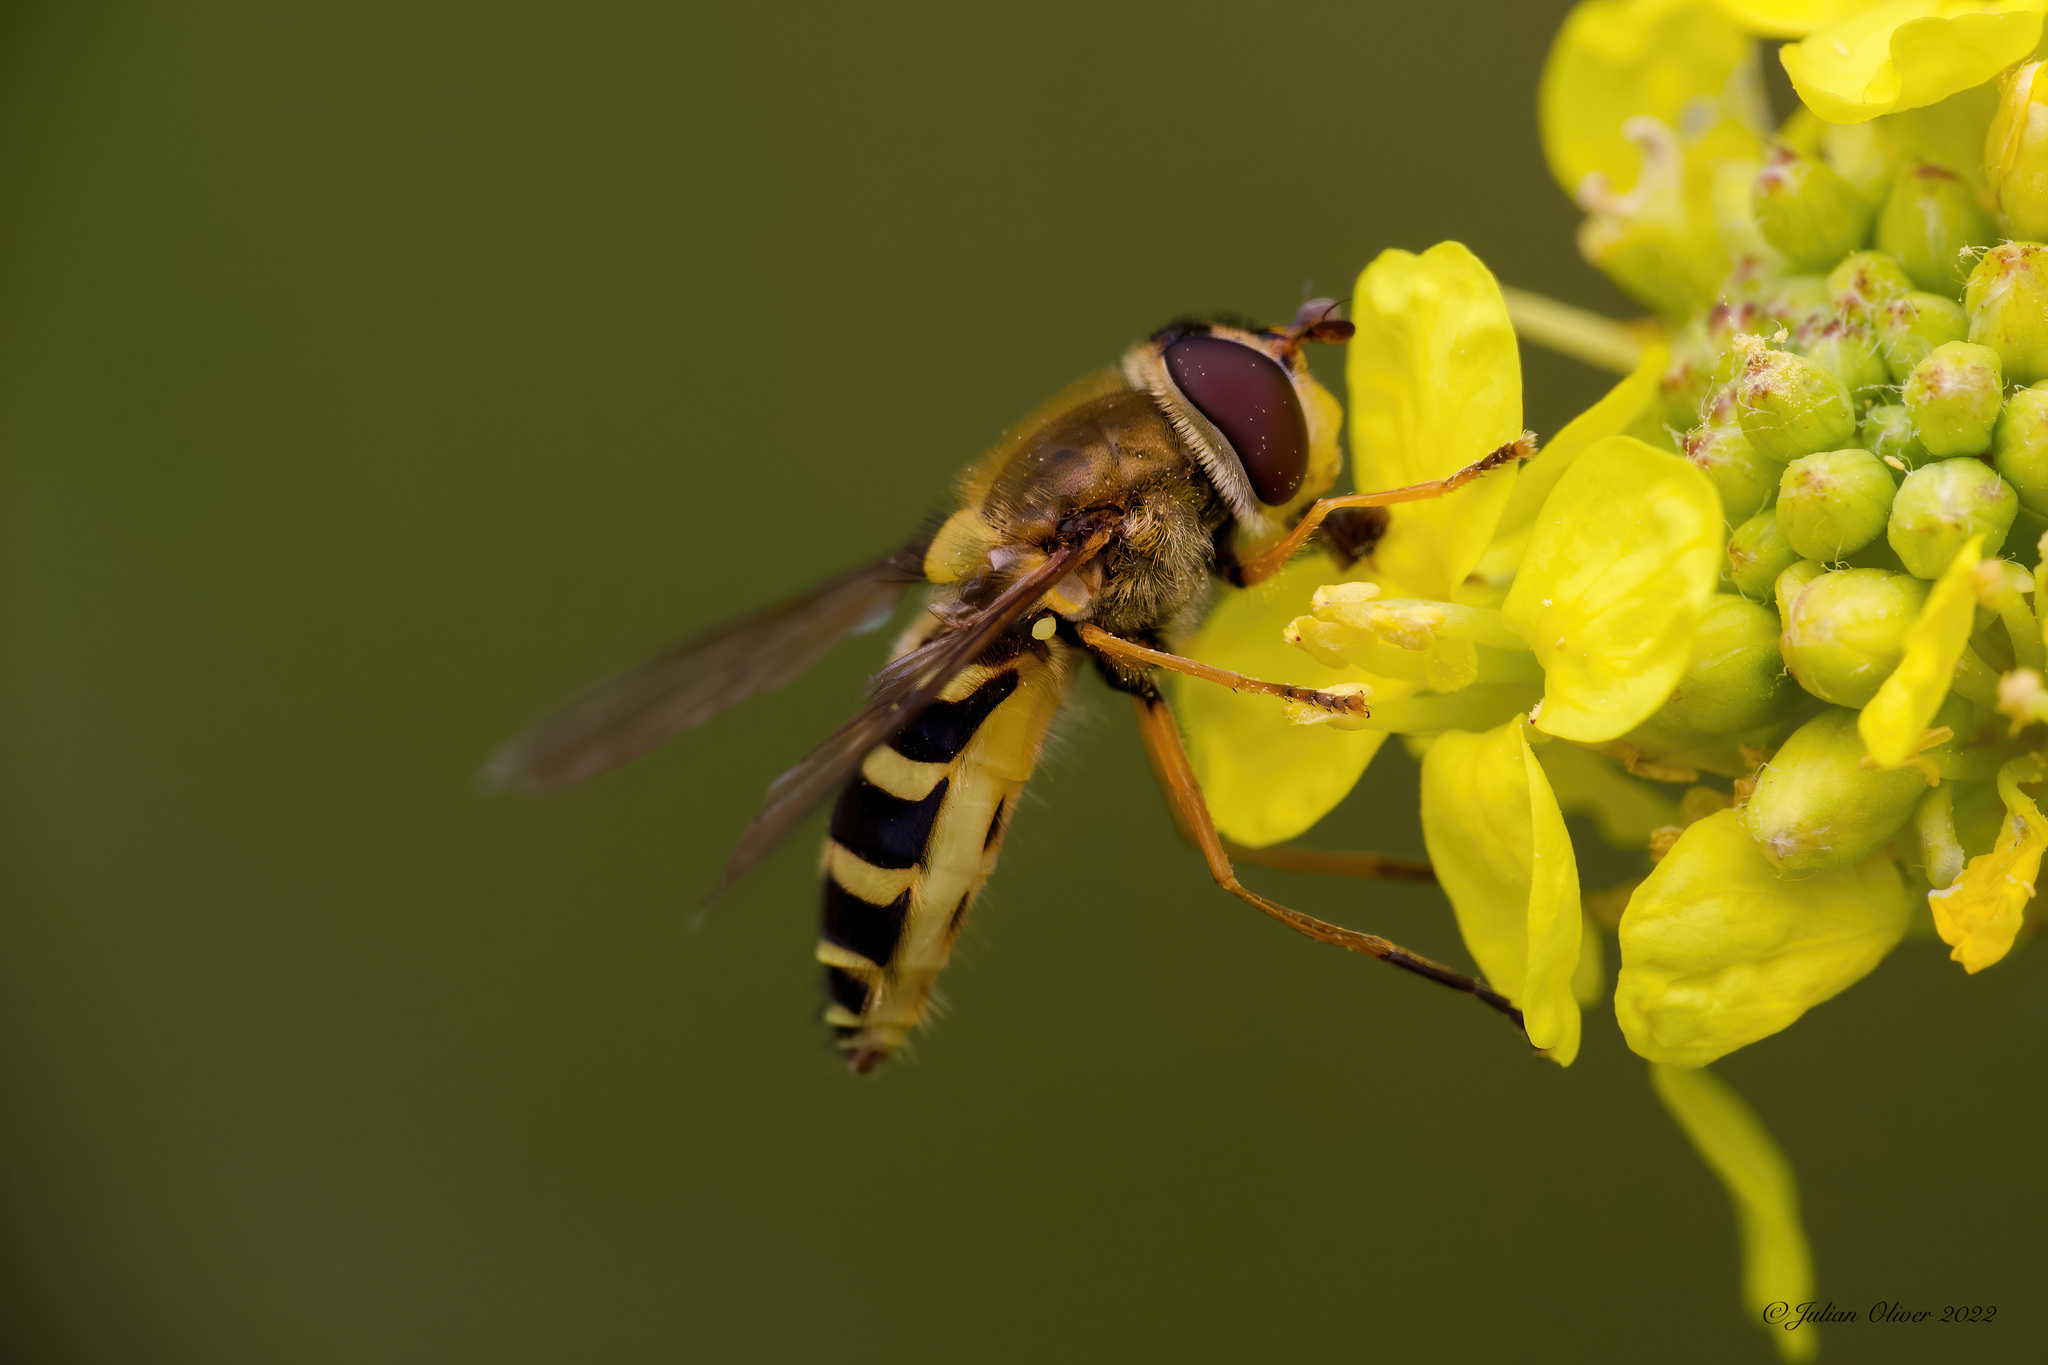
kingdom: Animalia
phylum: Arthropoda
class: Insecta
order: Diptera
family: Syrphidae
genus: Syrphus
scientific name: Syrphus ribesii
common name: Common flower fly
